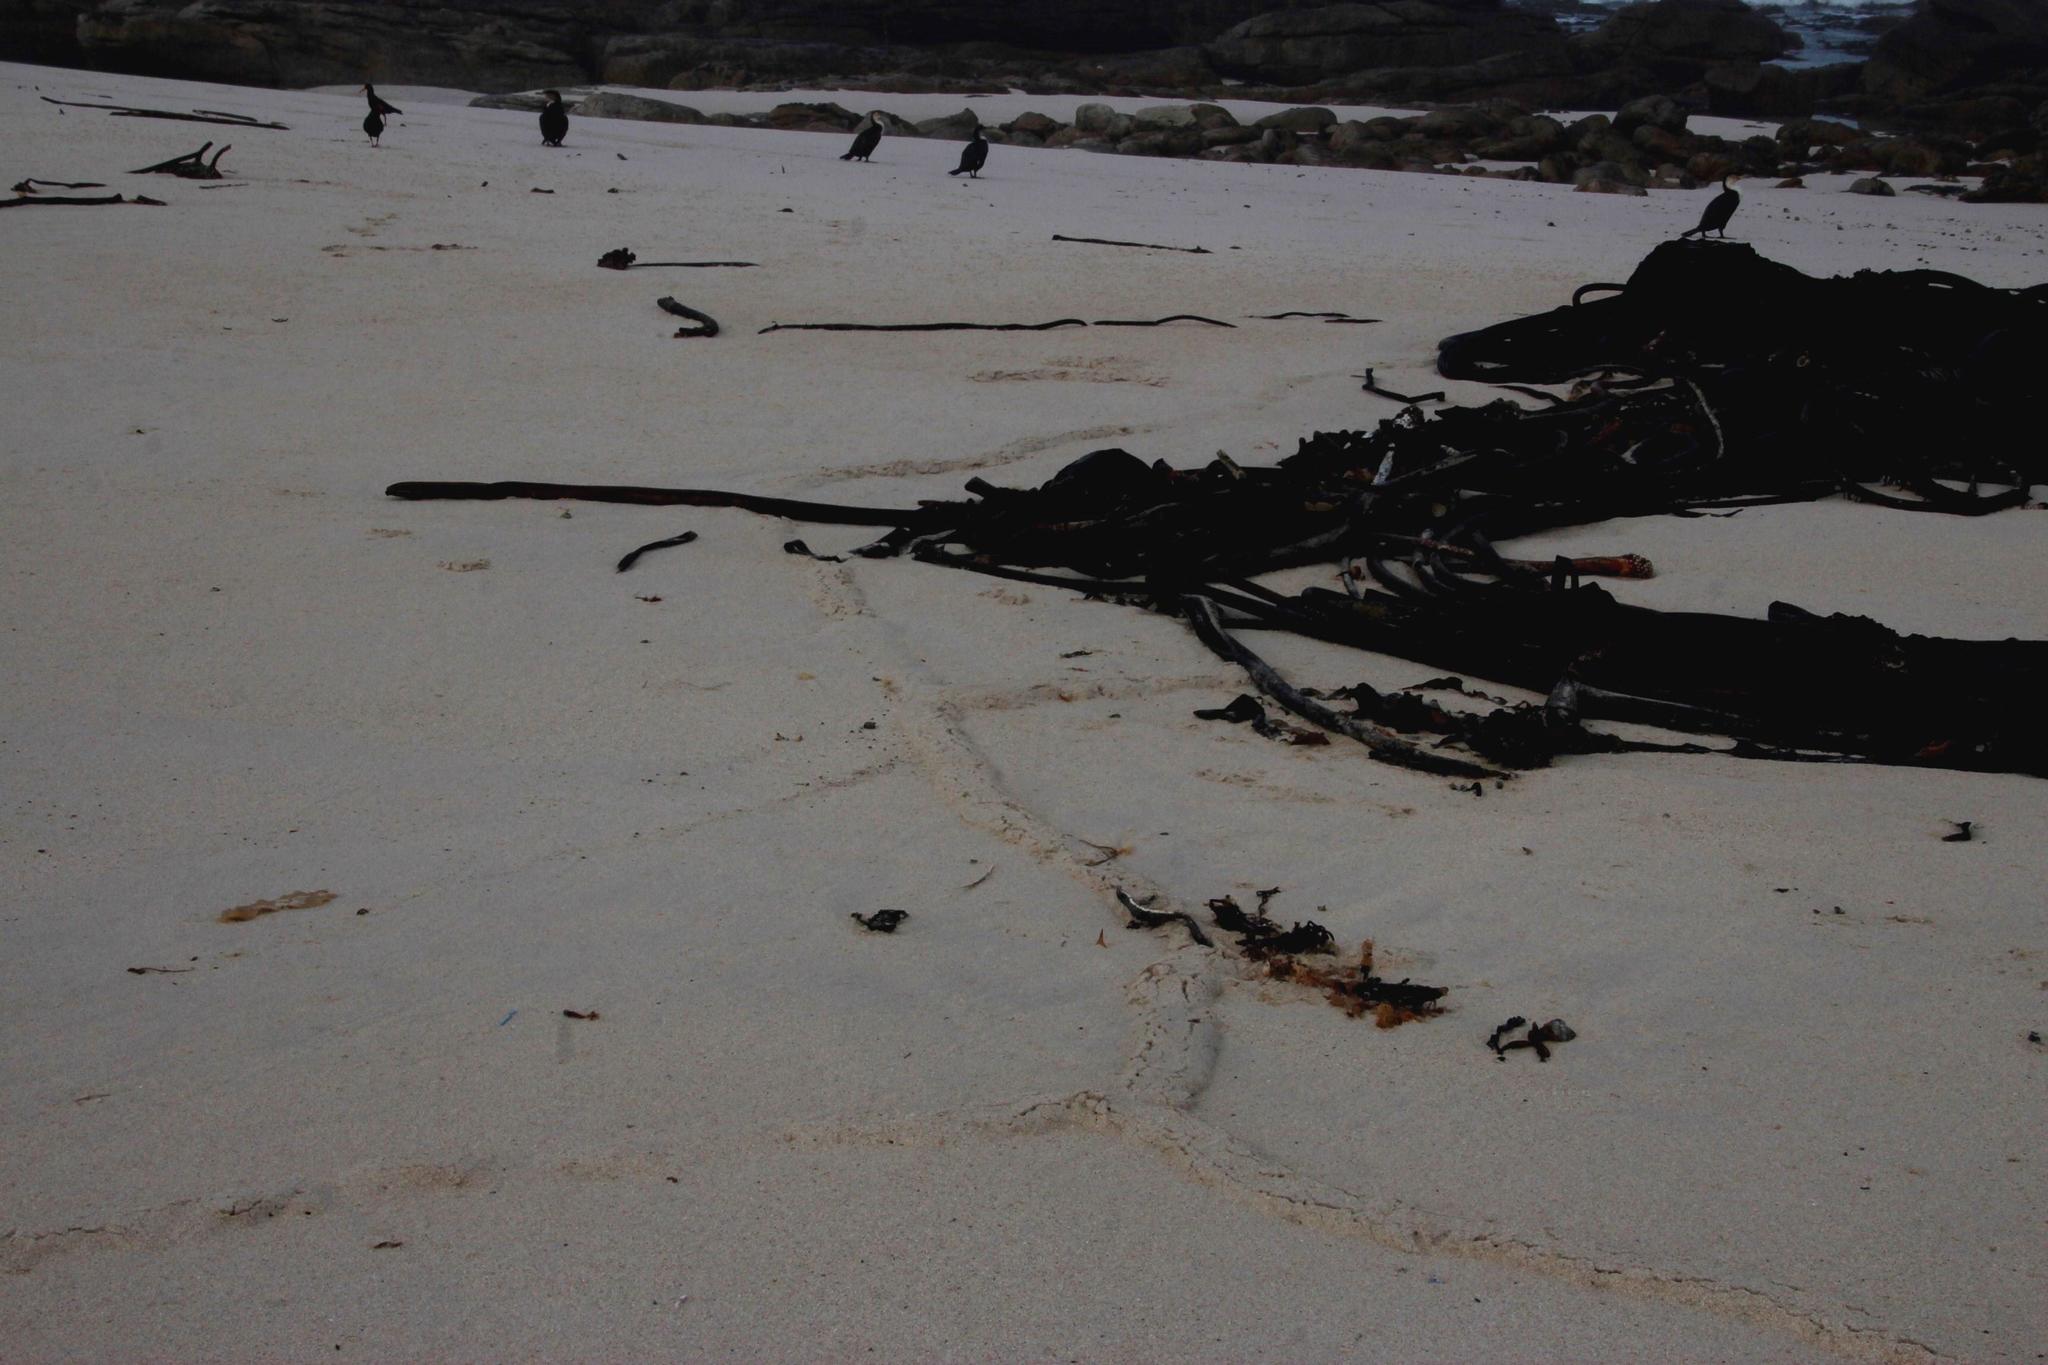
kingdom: Animalia
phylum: Chordata
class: Mammalia
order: Afrosoricida
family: Chrysochloridae
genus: Chrysochloris
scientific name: Chrysochloris asiatica
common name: Cape golden mole
